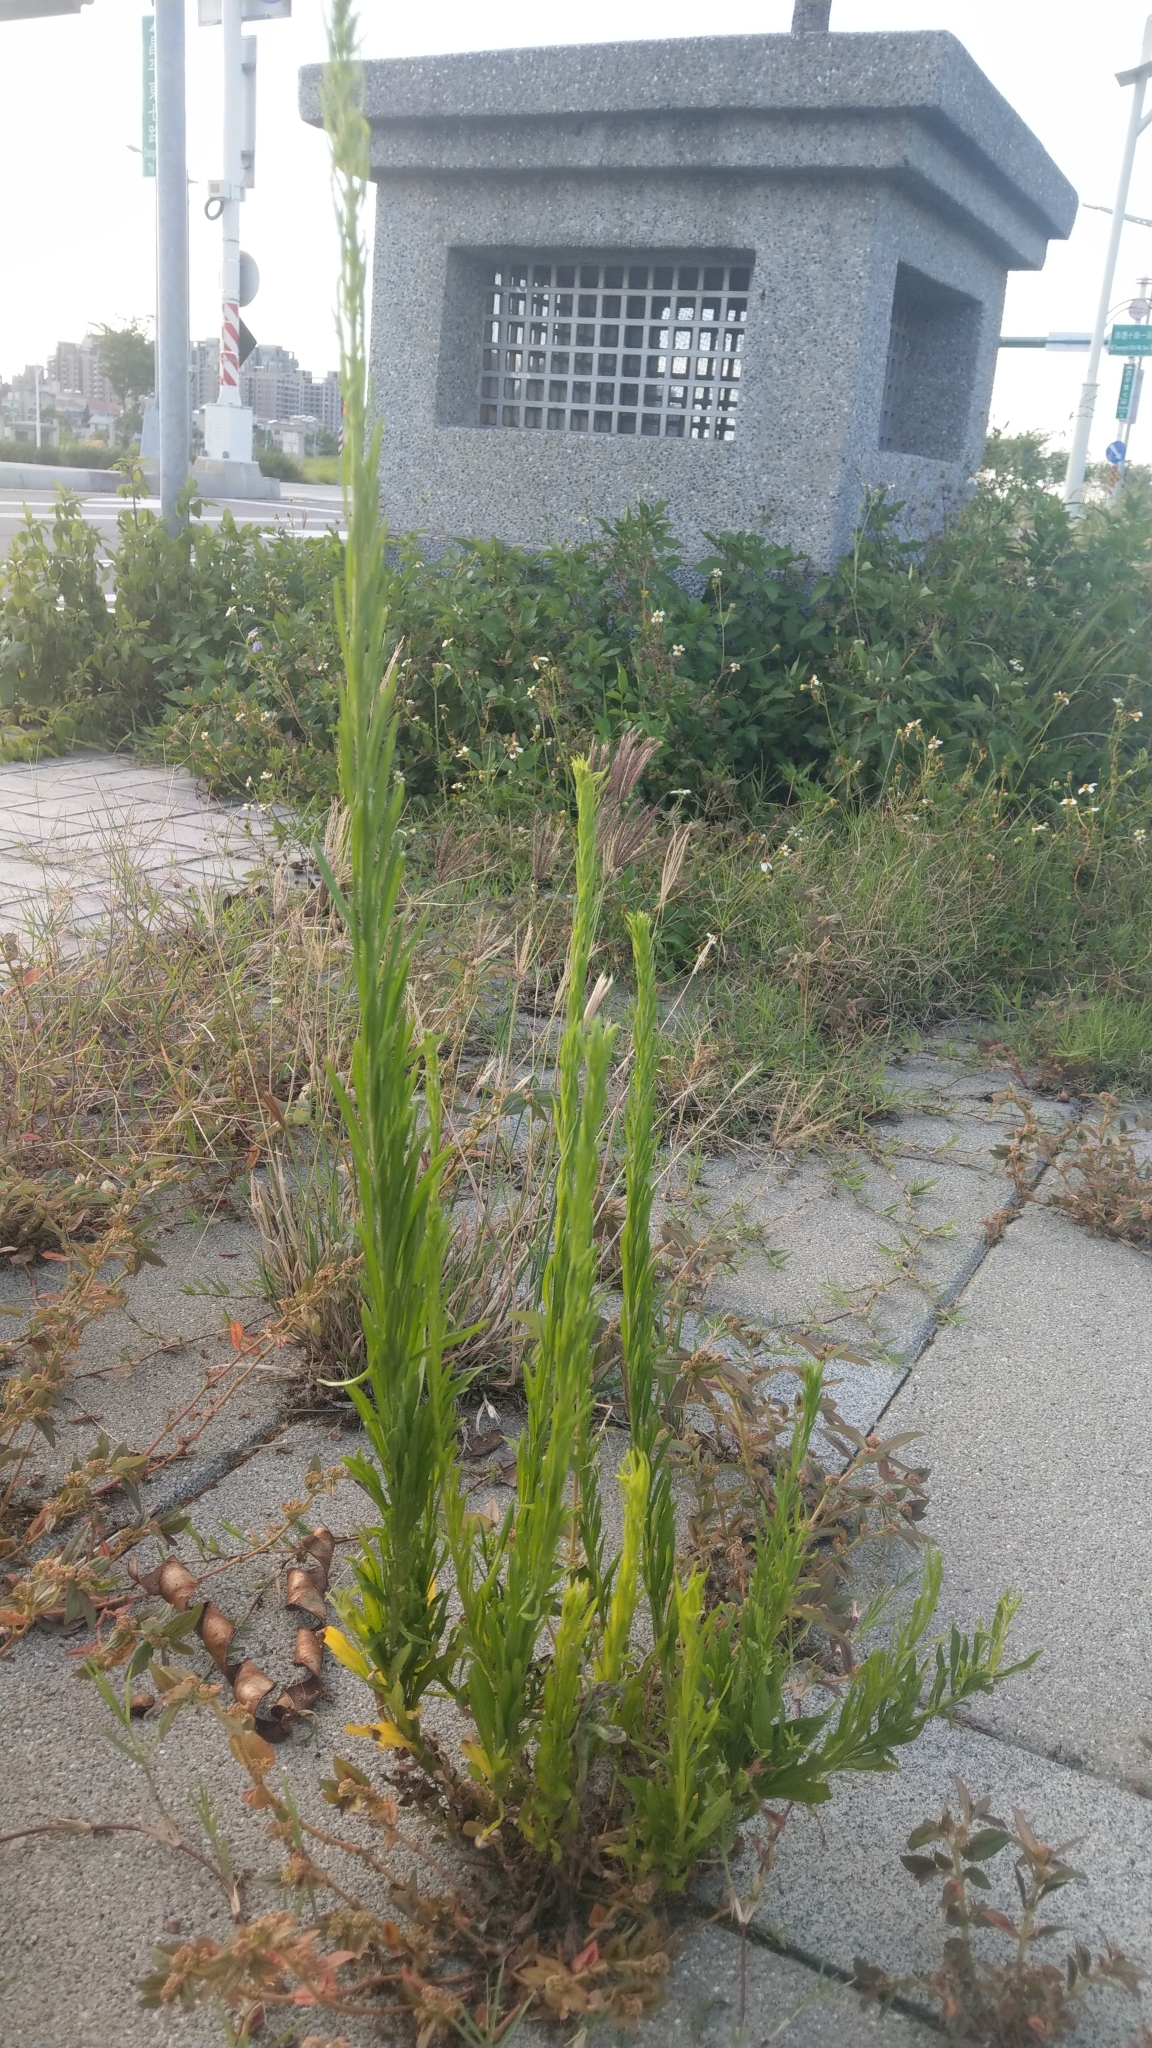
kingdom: Plantae
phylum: Tracheophyta
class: Magnoliopsida
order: Asterales
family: Asteraceae
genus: Erigeron
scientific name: Erigeron sumatrensis
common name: Daisy
